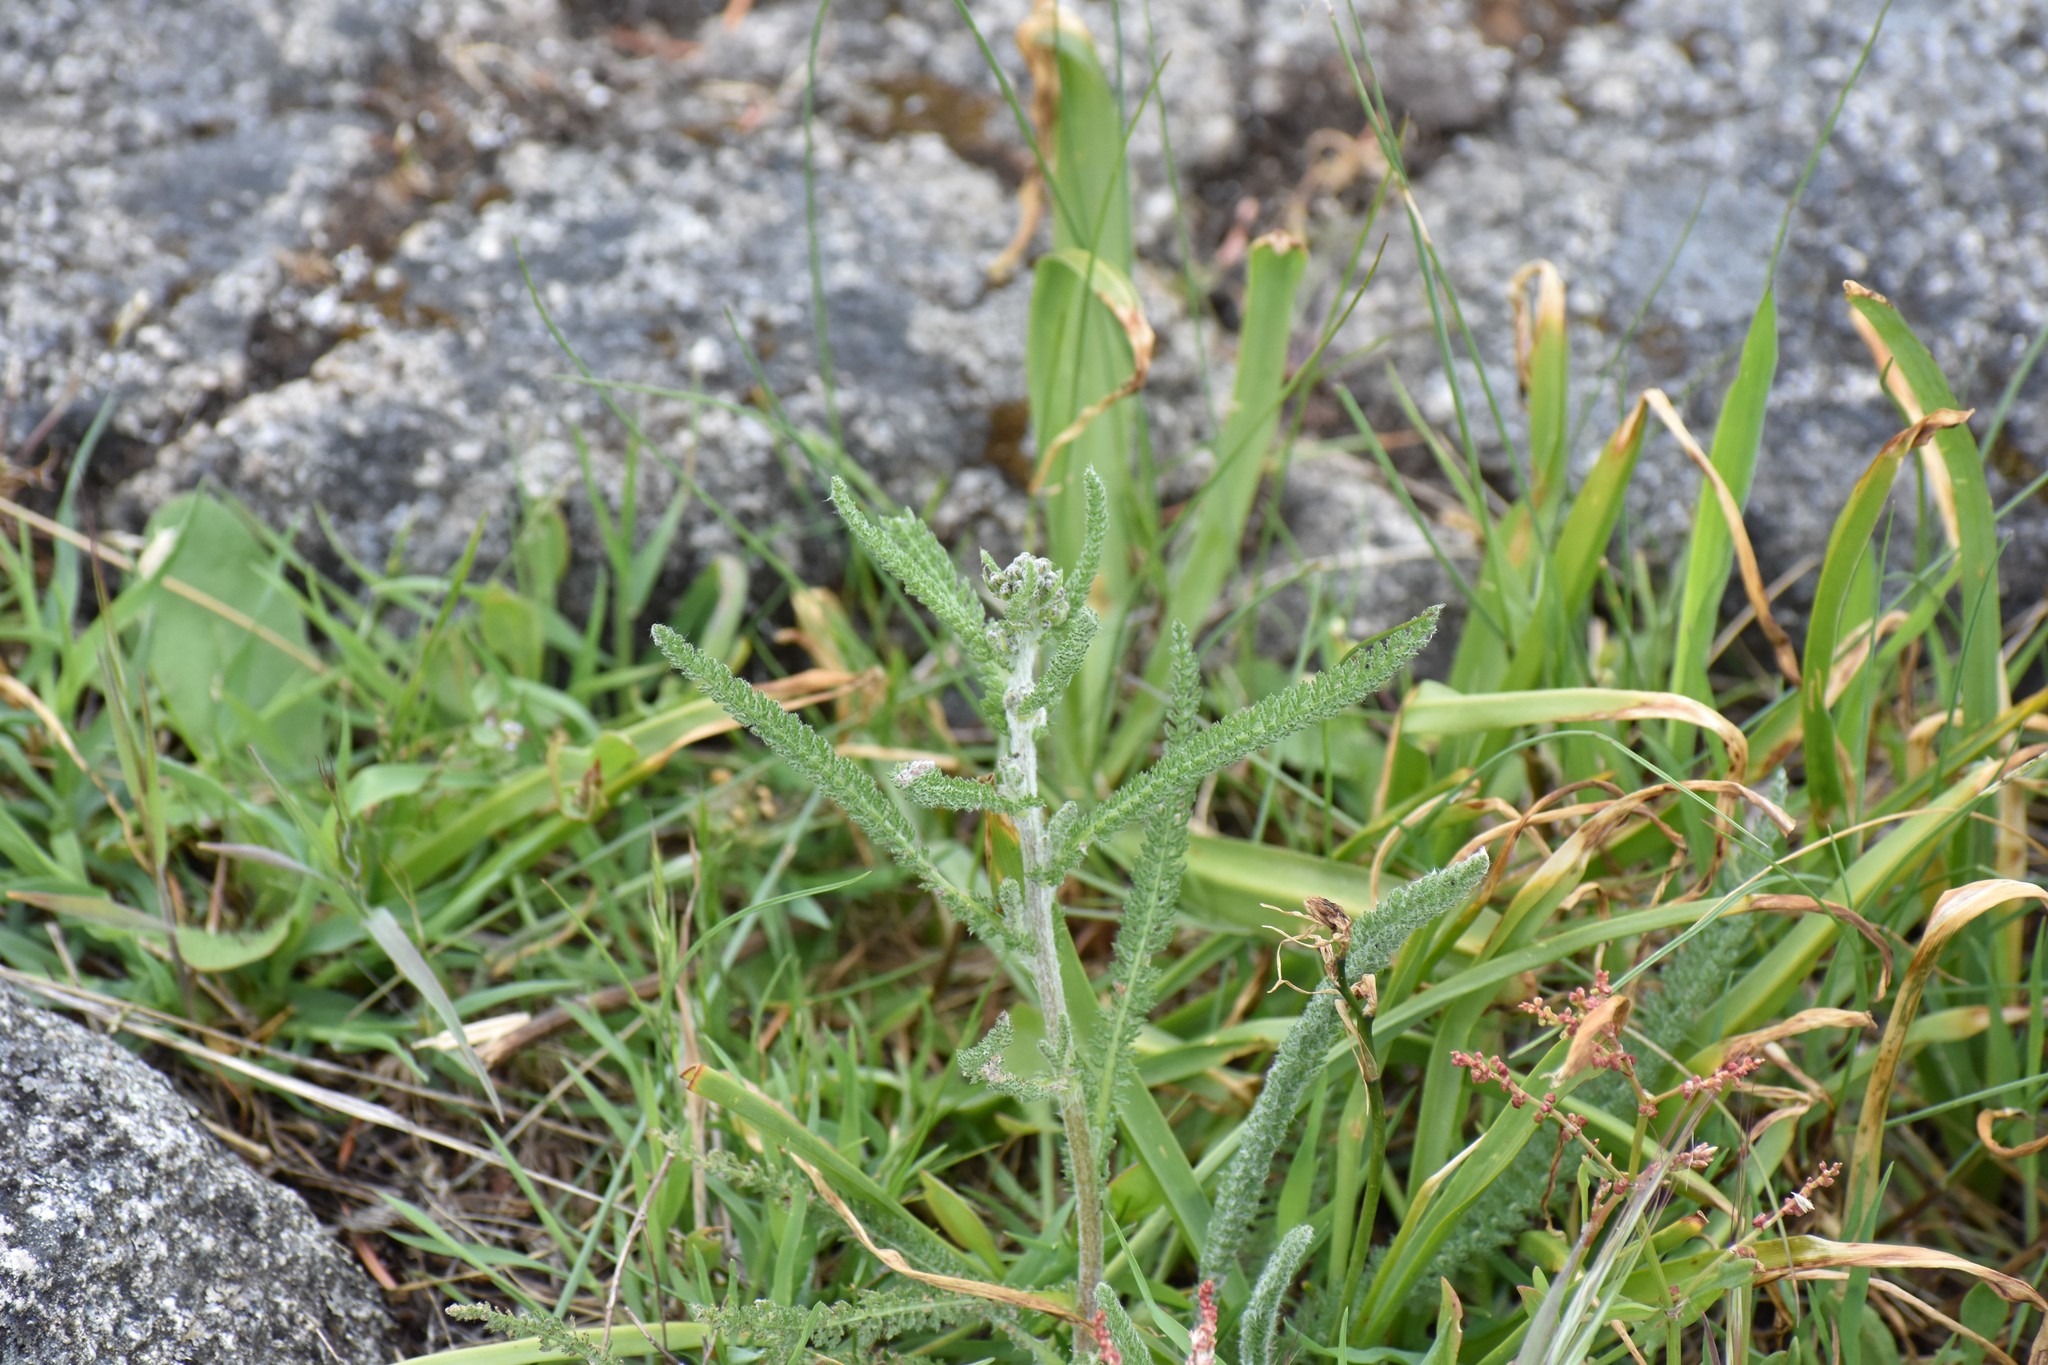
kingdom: Plantae
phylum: Tracheophyta
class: Magnoliopsida
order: Asterales
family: Asteraceae
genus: Achillea
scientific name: Achillea millefolium
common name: Yarrow
